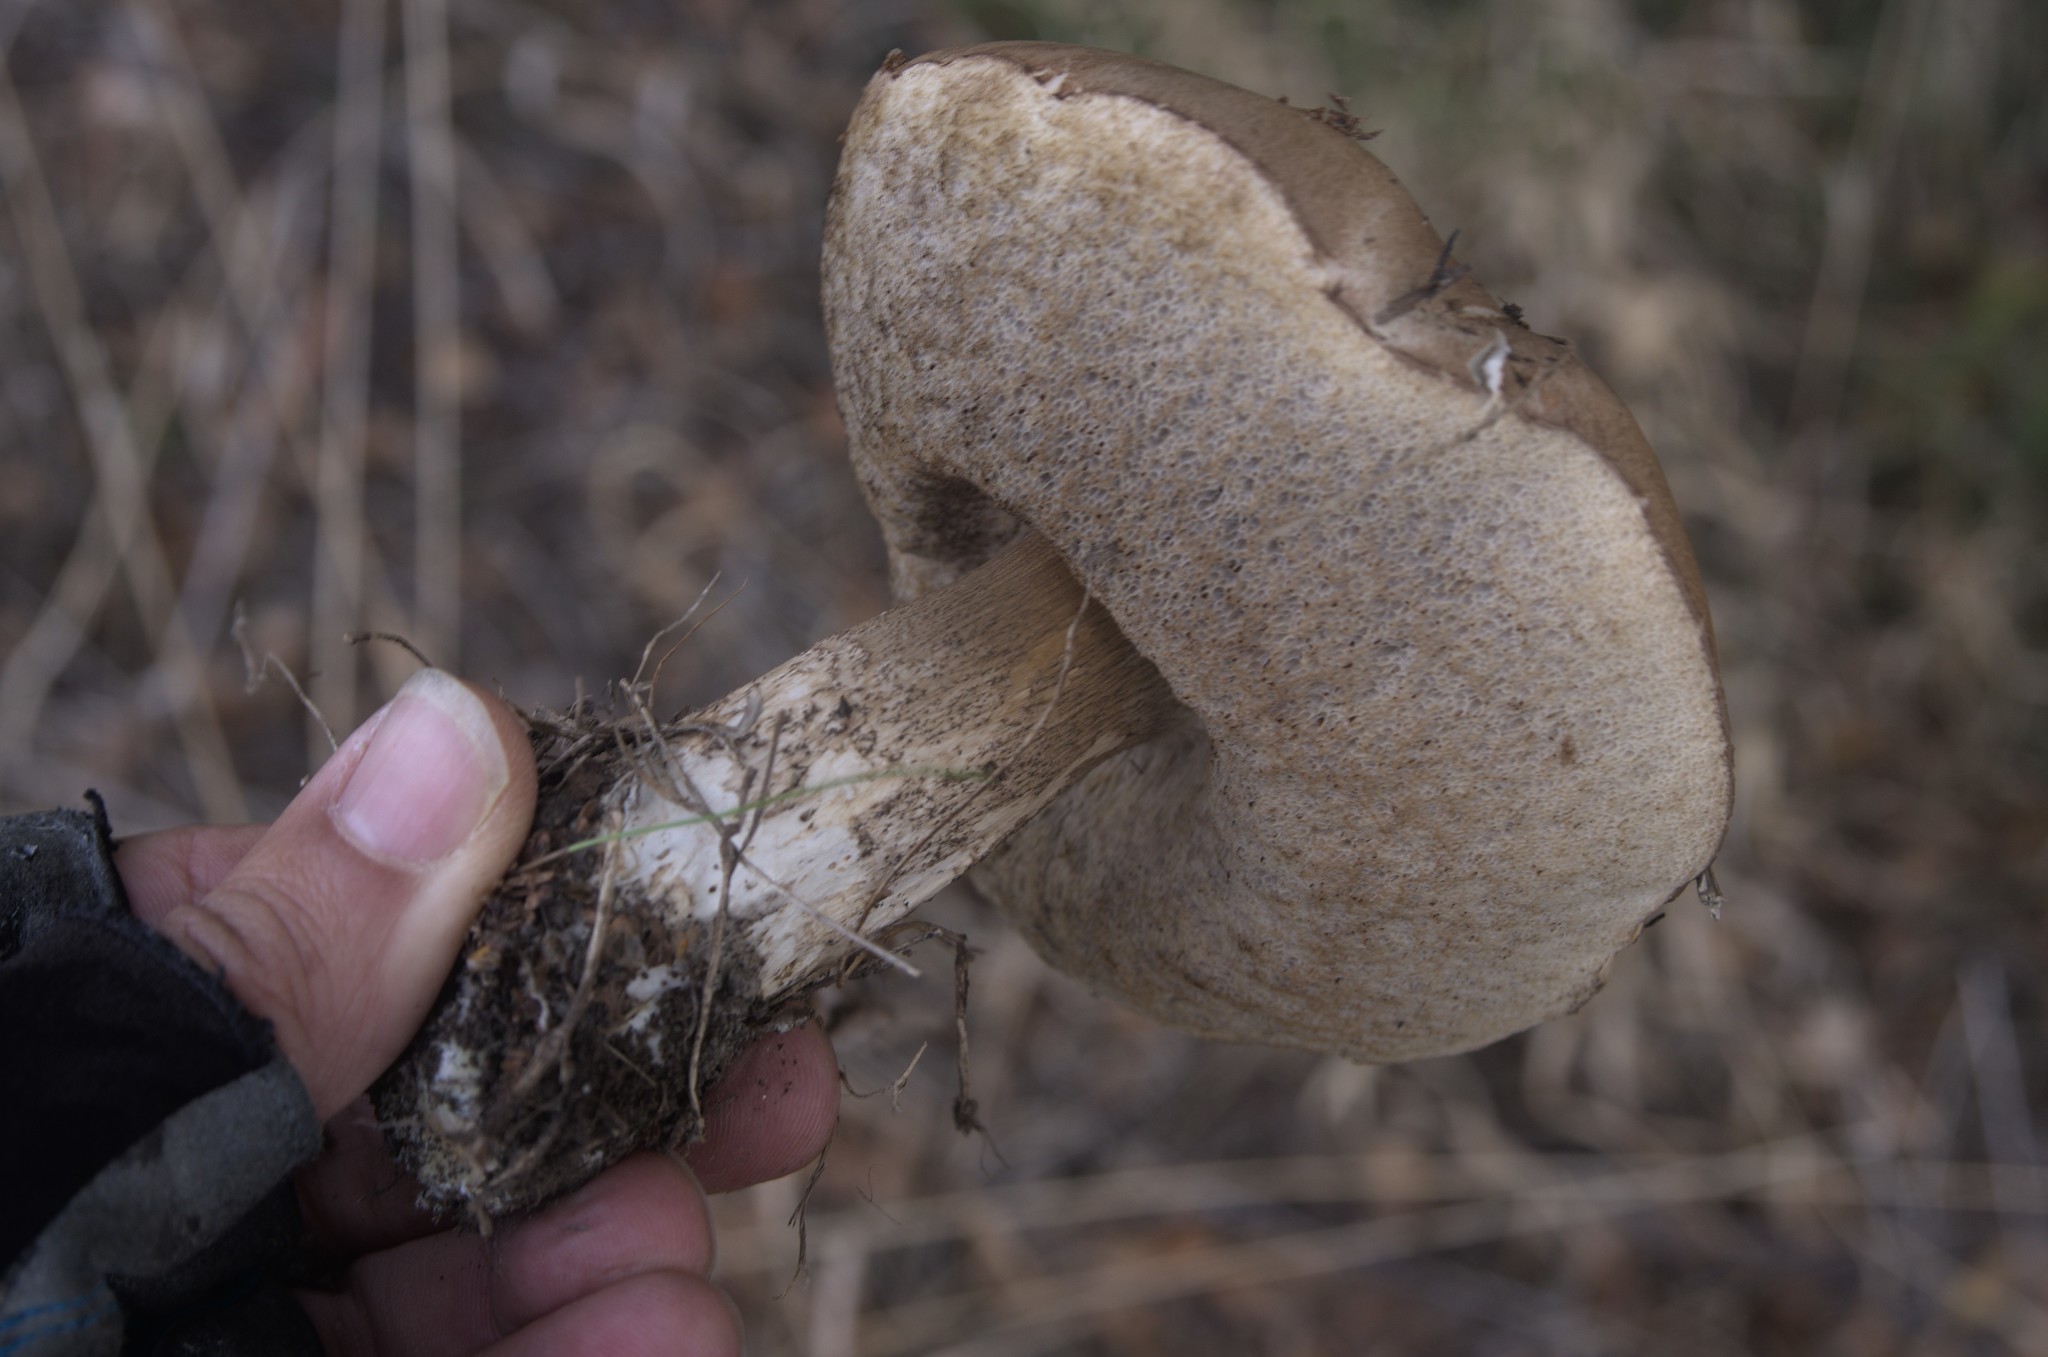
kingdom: Fungi
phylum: Basidiomycota
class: Agaricomycetes
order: Boletales
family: Boletaceae
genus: Leccinum
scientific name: Leccinum scabrum
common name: Blushing bolete
